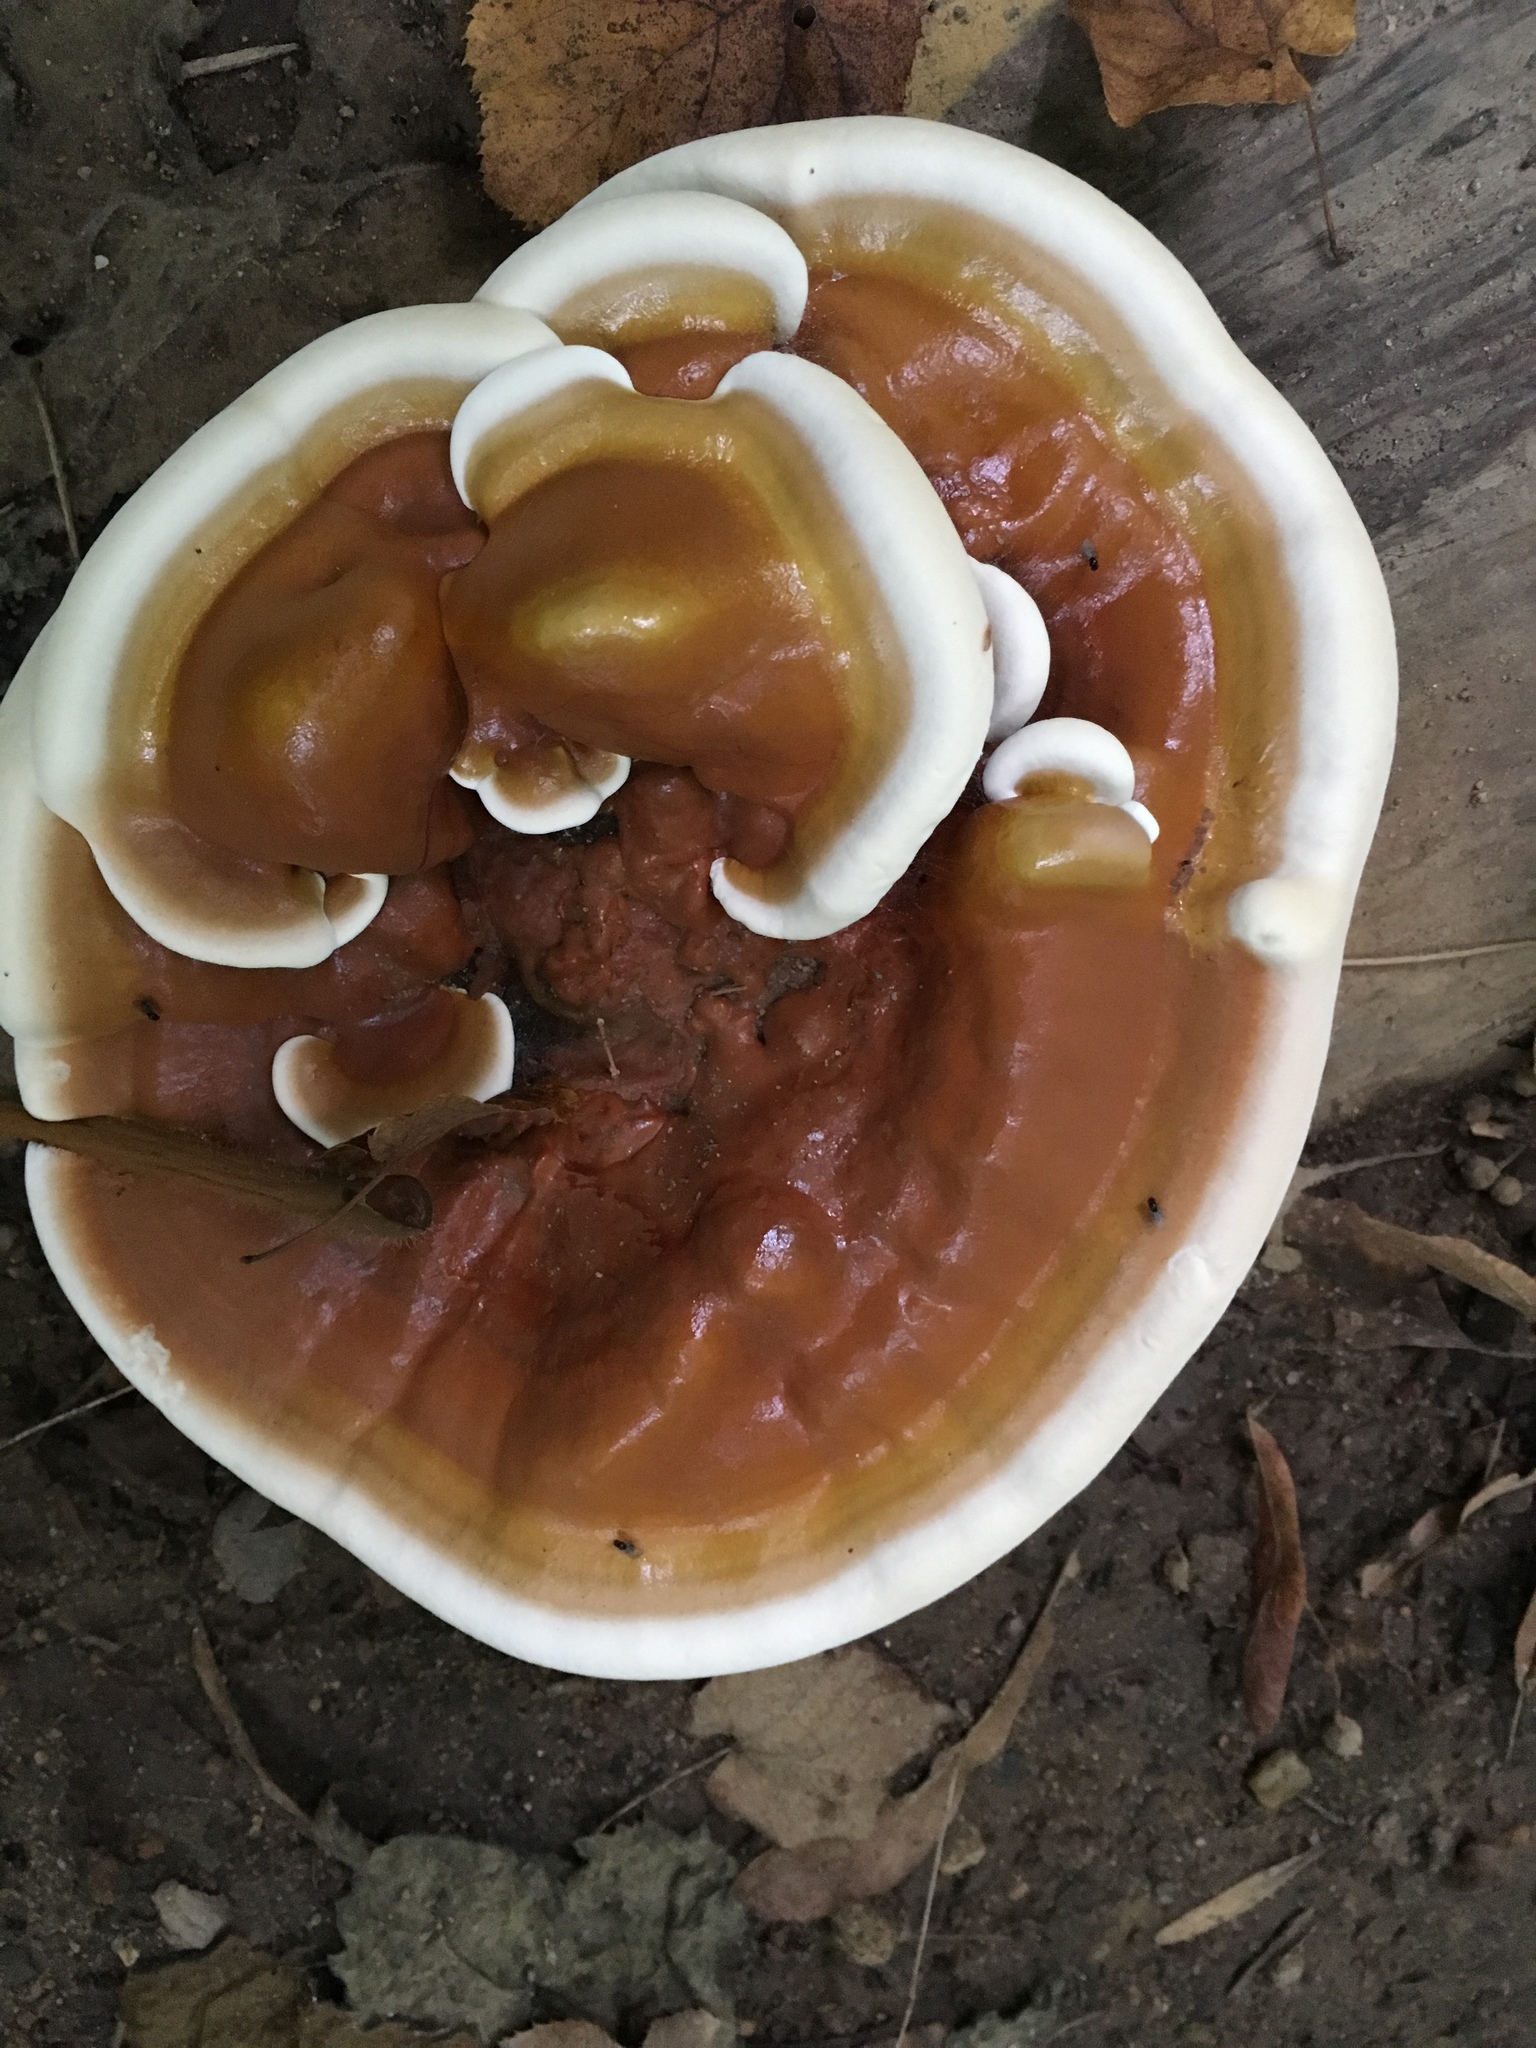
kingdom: Fungi
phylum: Basidiomycota
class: Agaricomycetes
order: Polyporales
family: Polyporaceae
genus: Ganoderma
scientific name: Ganoderma resinaceum
